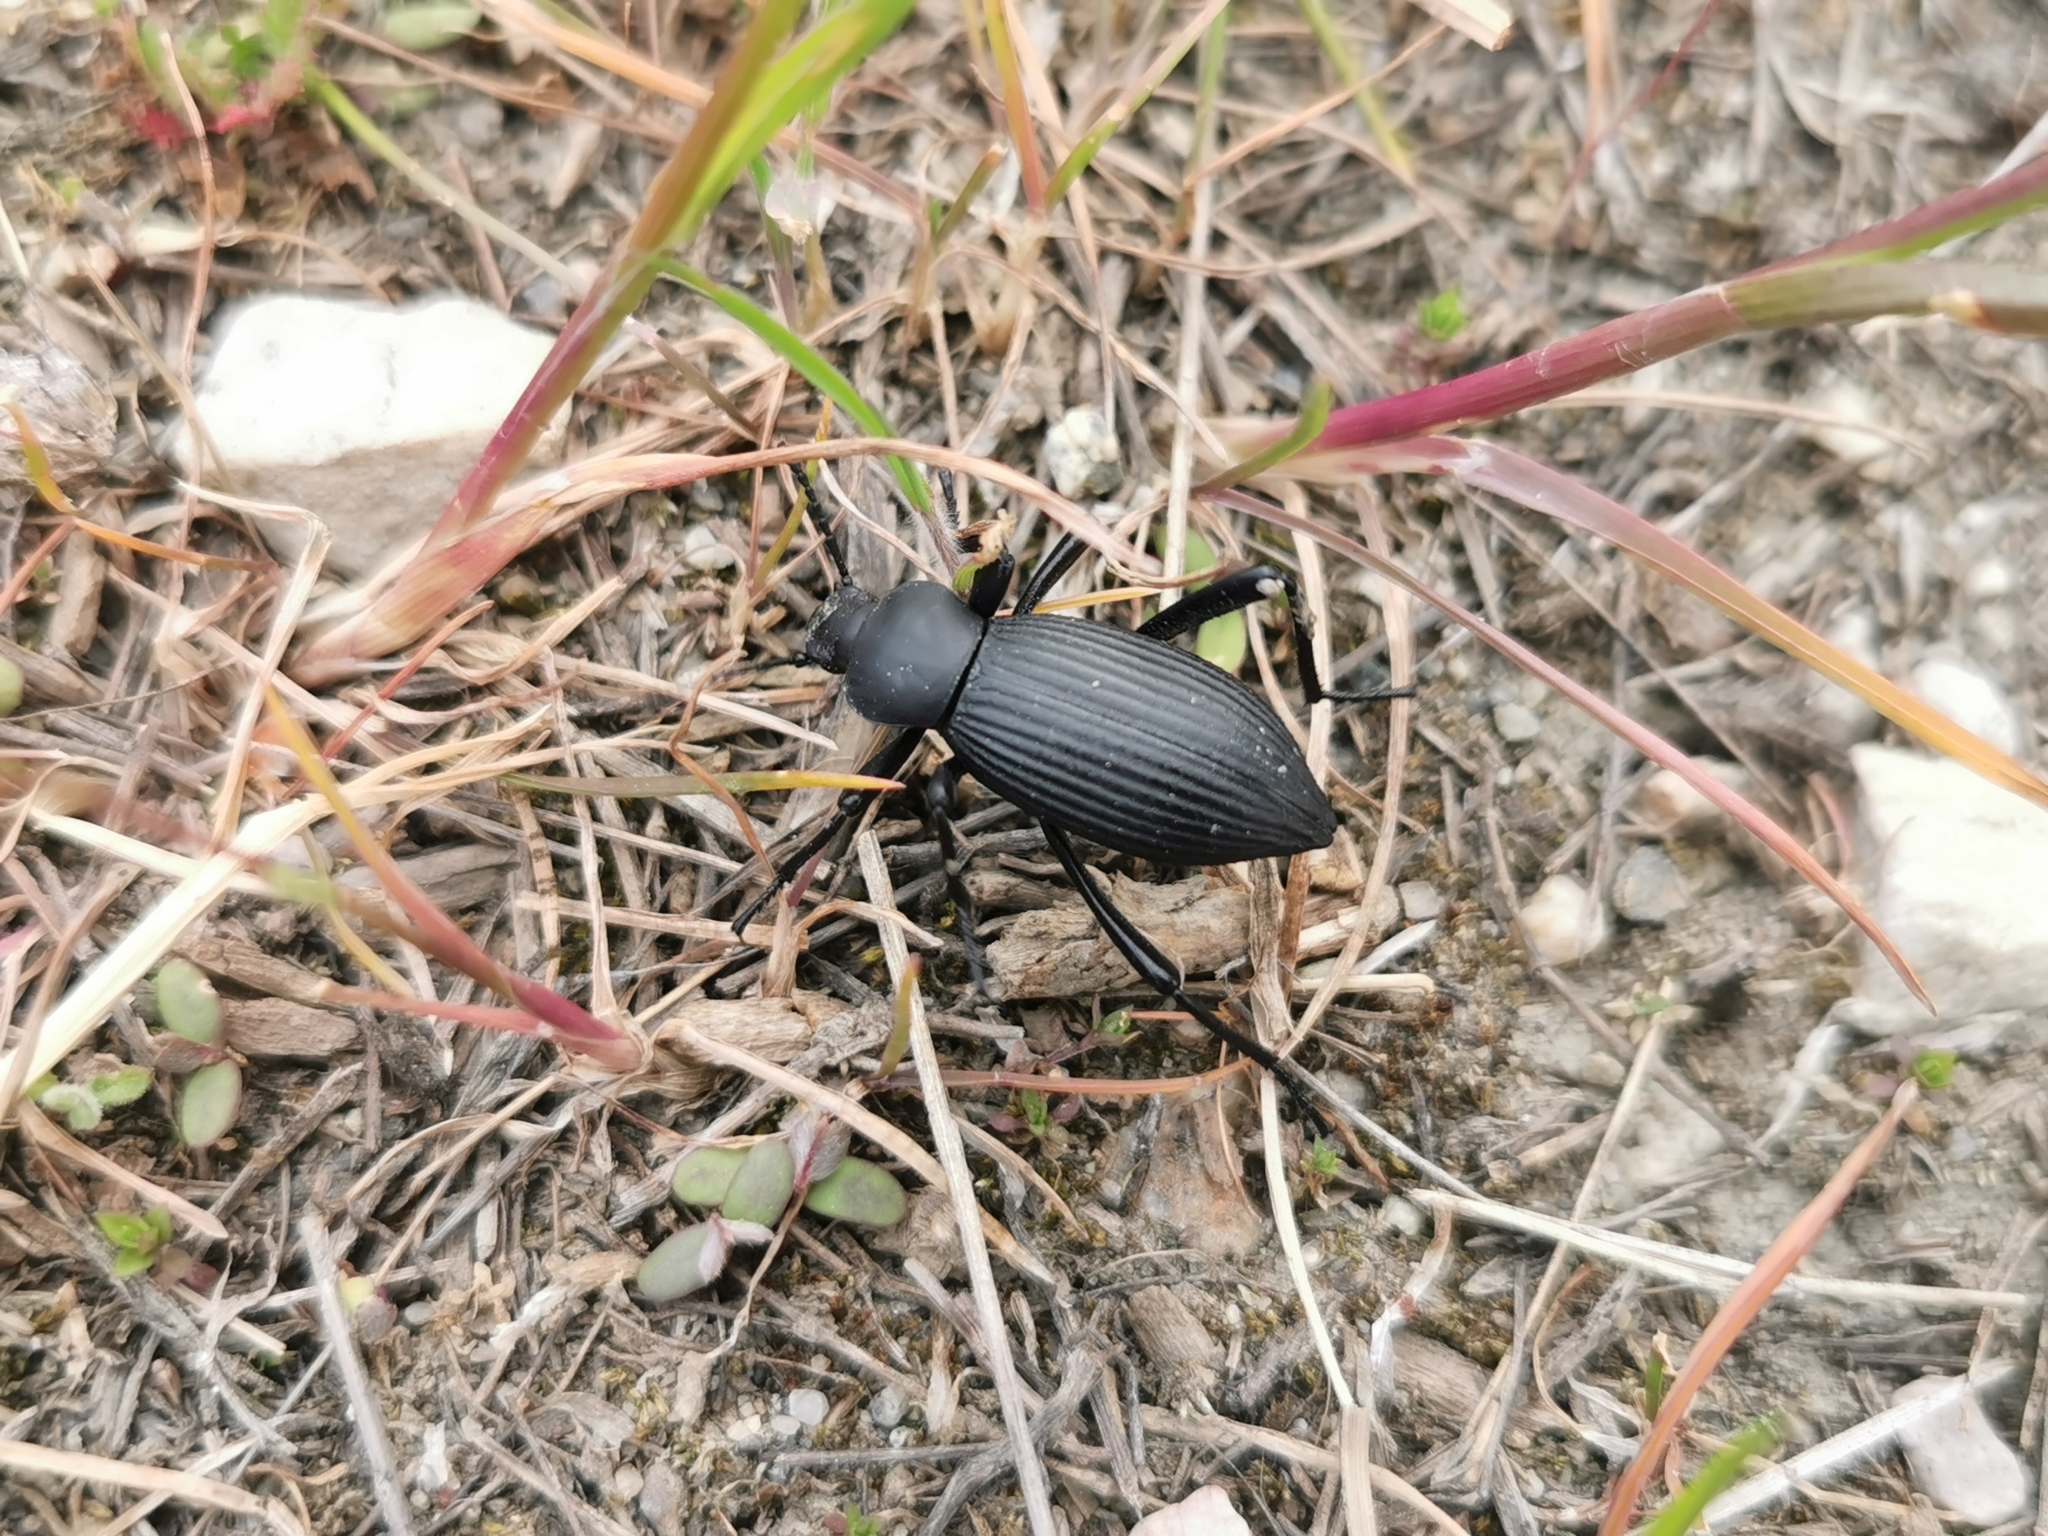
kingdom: Animalia
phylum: Arthropoda
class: Insecta
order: Coleoptera
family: Tenebrionidae
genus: Eleodes
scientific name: Eleodes hispilabris
